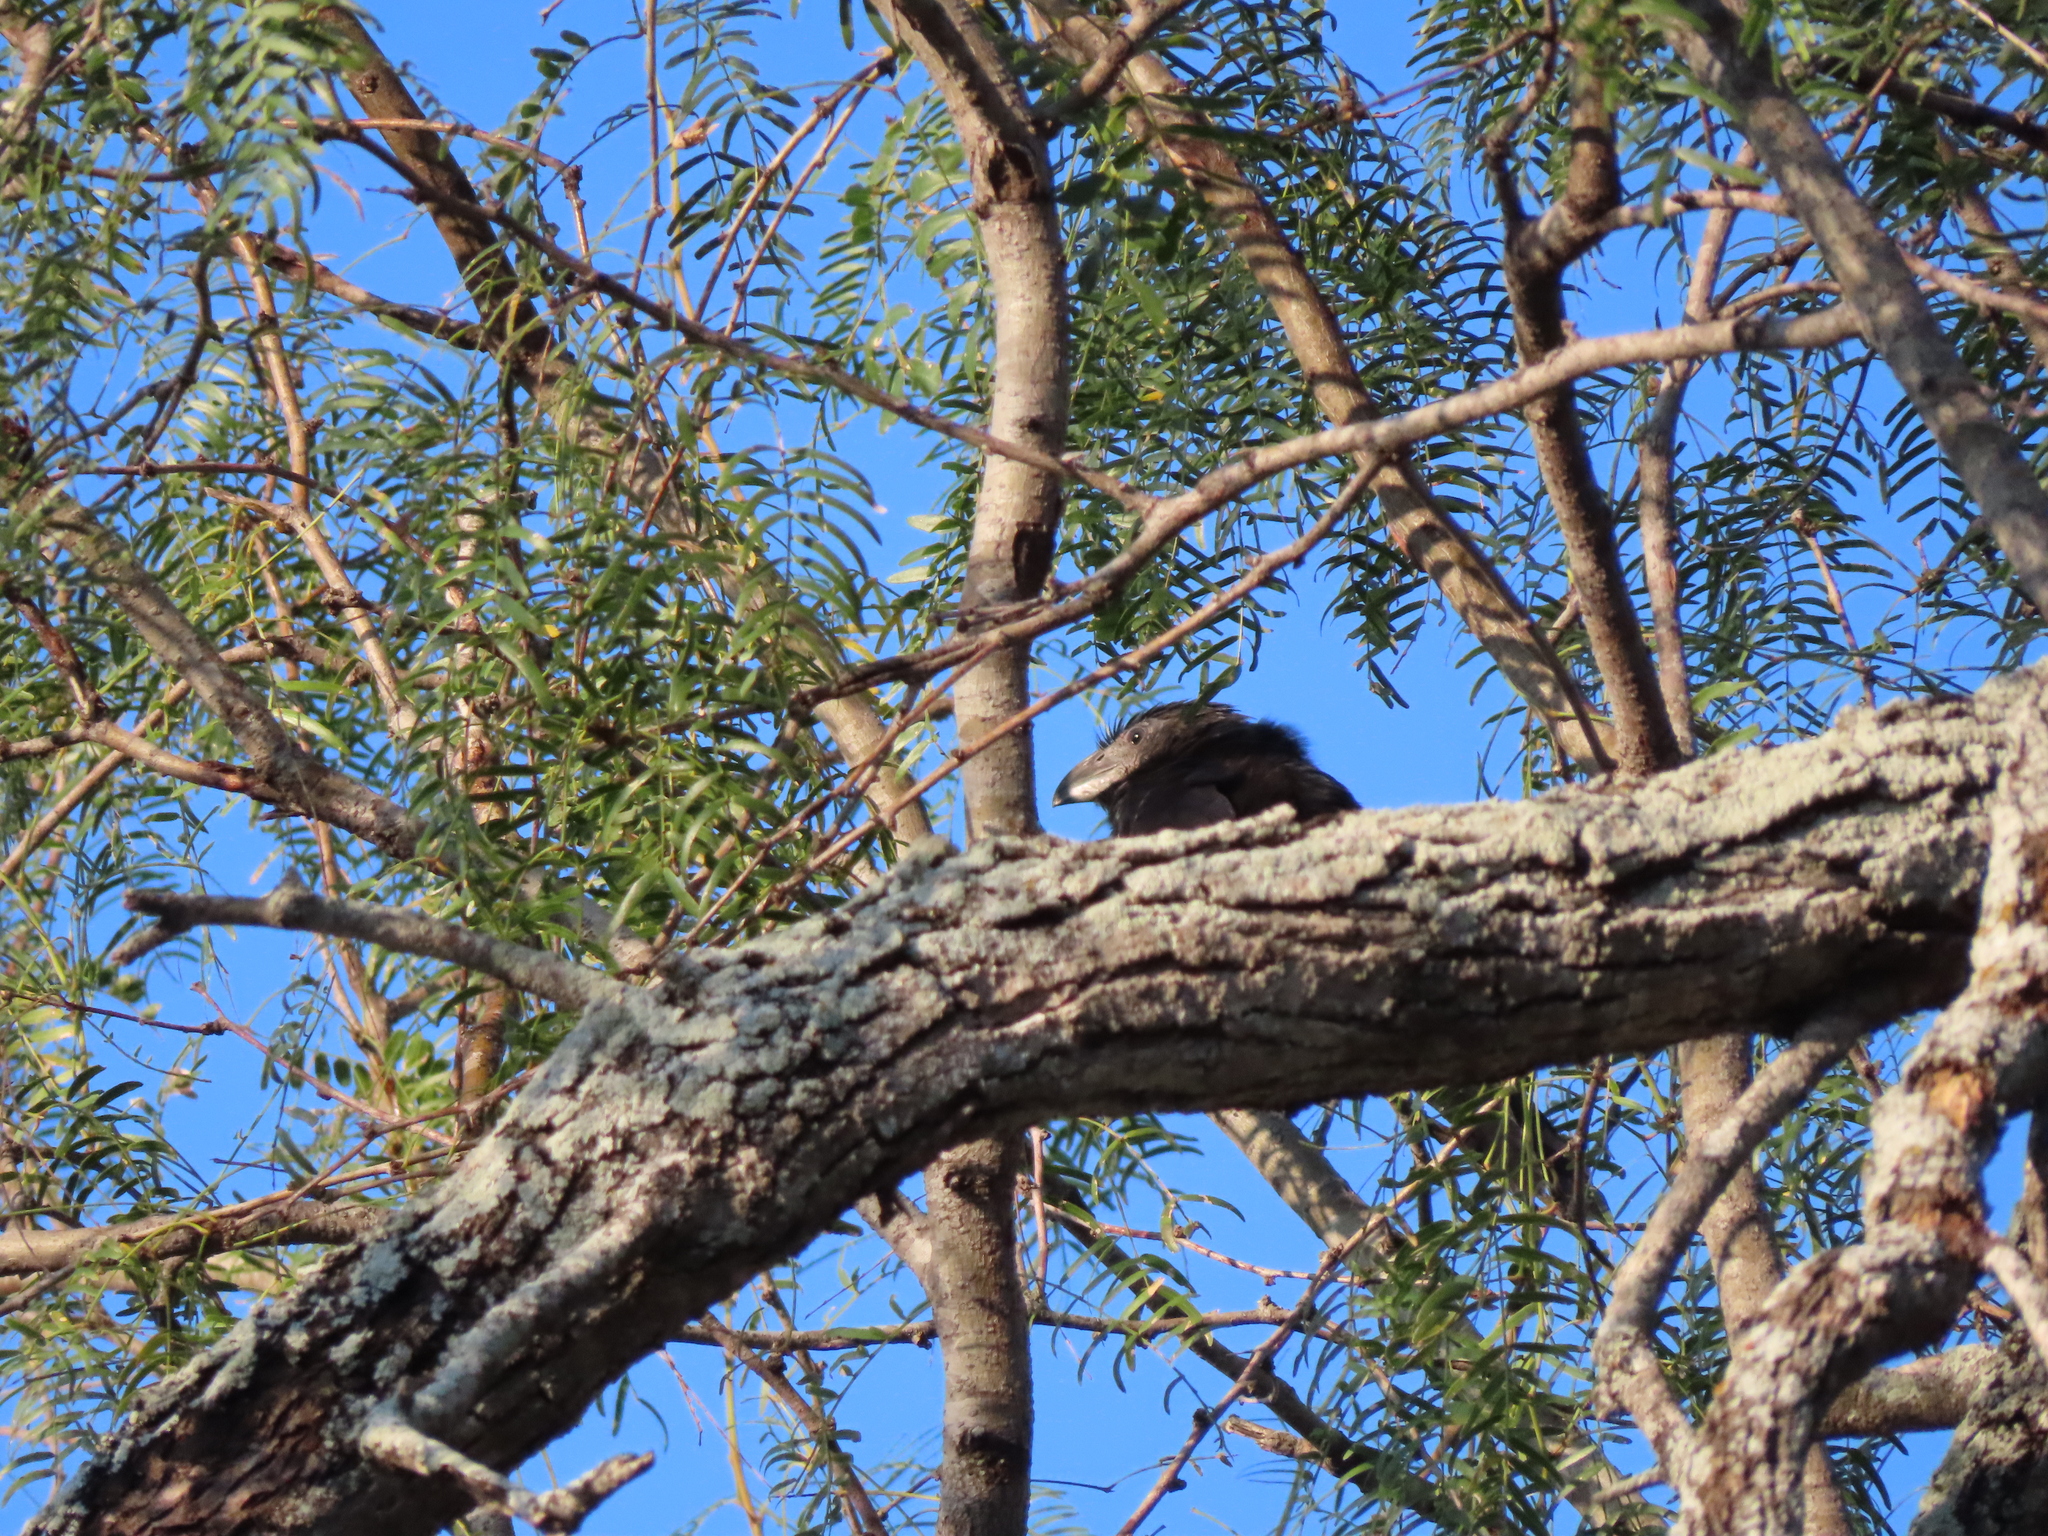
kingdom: Animalia
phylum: Chordata
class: Aves
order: Cuculiformes
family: Cuculidae
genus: Crotophaga
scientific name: Crotophaga sulcirostris
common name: Groove-billed ani
